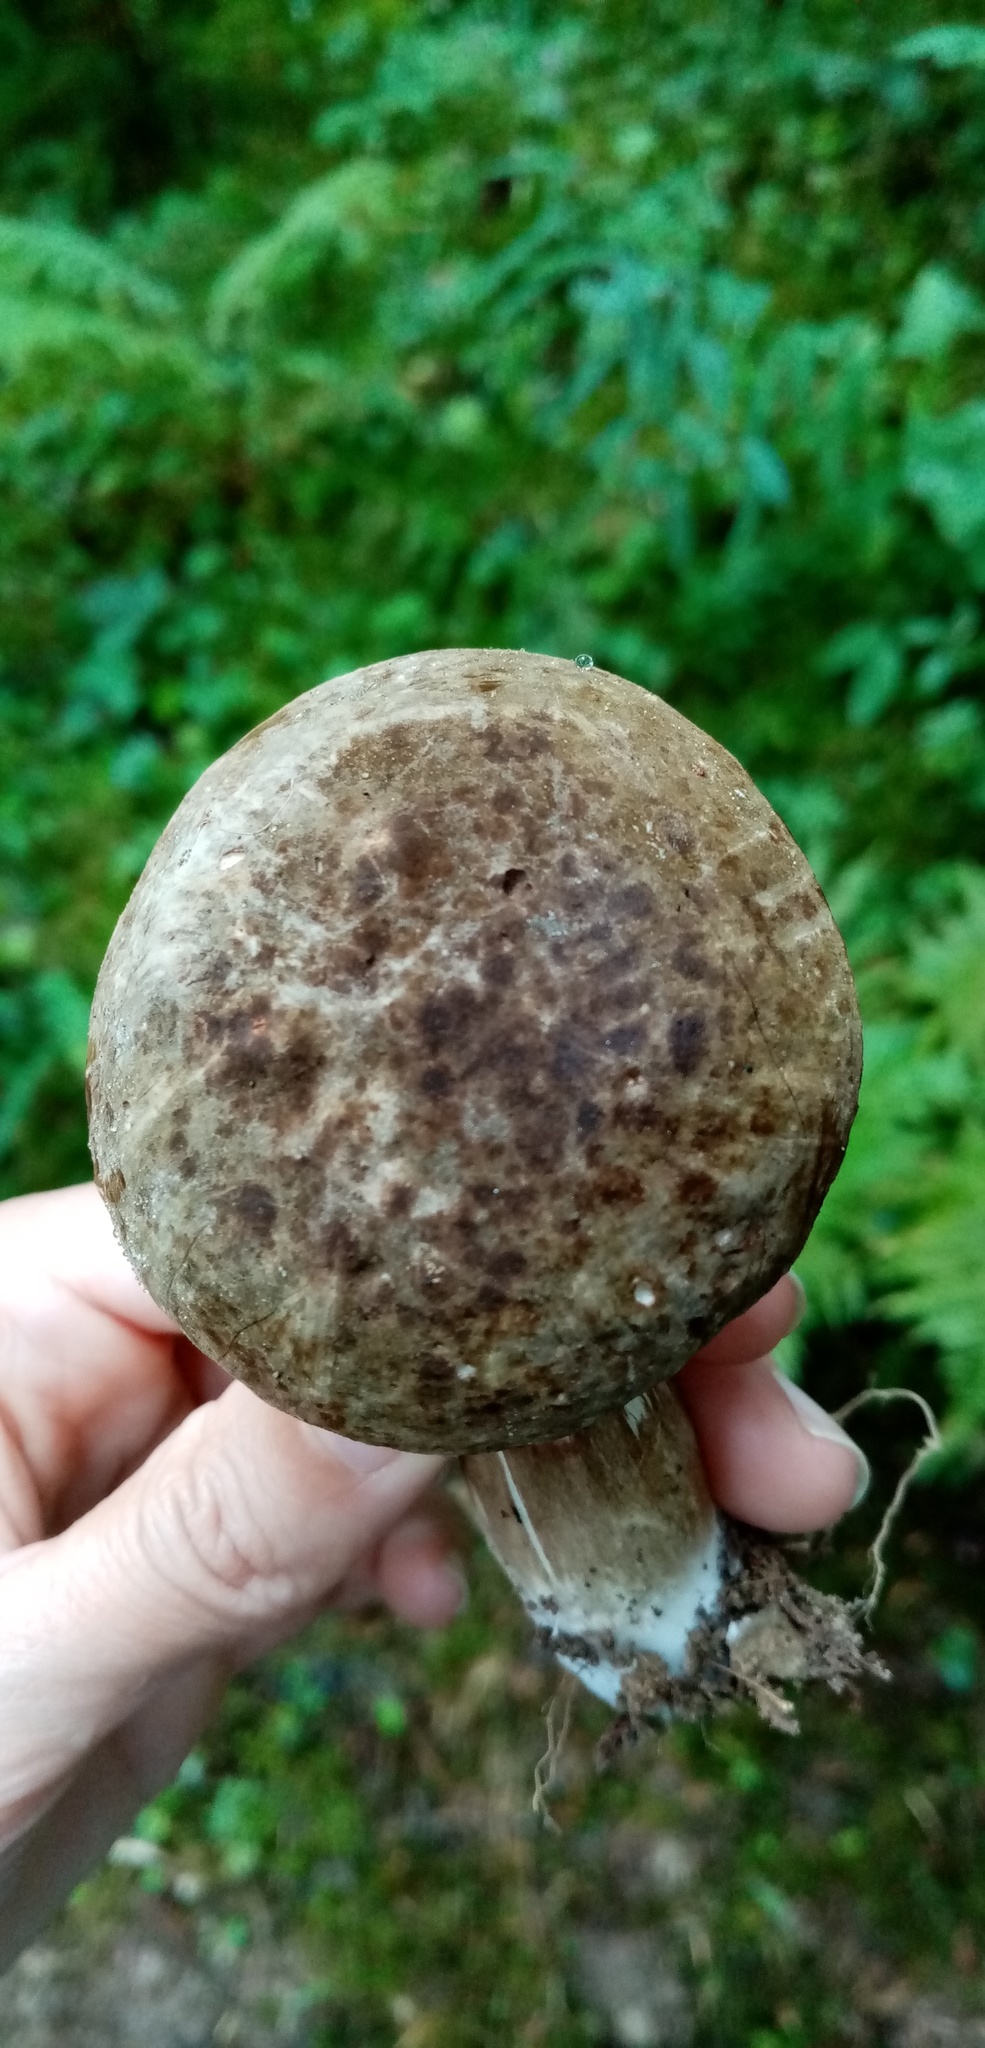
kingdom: Fungi
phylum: Basidiomycota
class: Agaricomycetes
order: Boletales
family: Boletaceae
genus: Porphyrellus
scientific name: Porphyrellus porphyrosporus
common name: Dusky bolete
